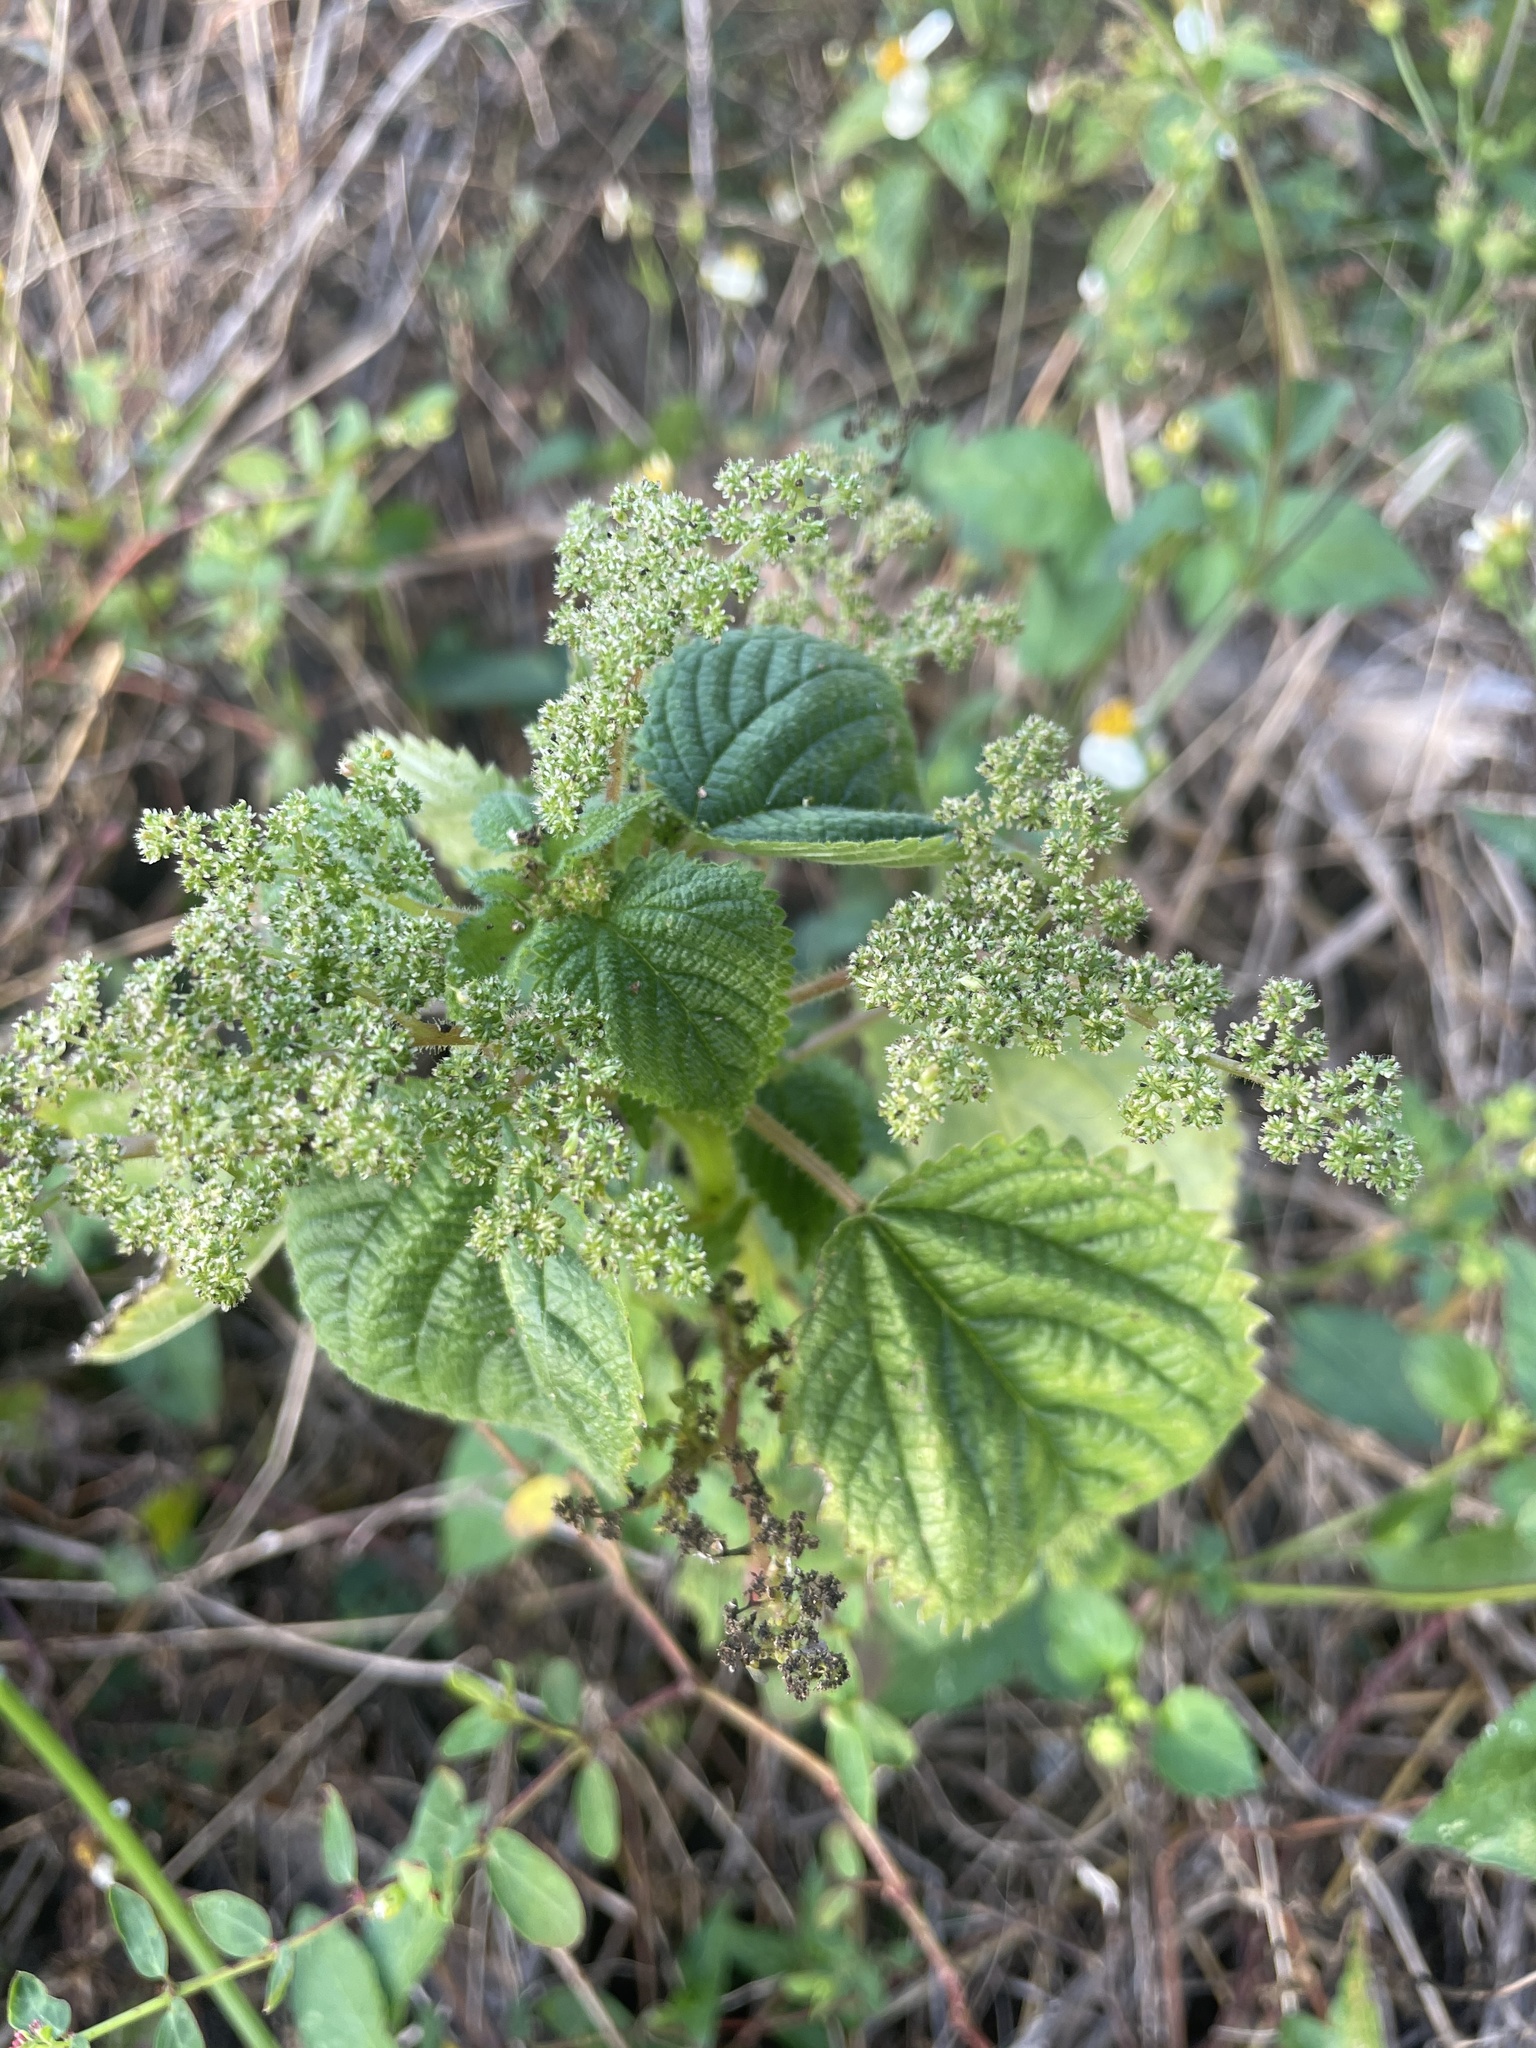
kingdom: Plantae
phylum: Tracheophyta
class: Magnoliopsida
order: Rosales
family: Urticaceae
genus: Laportea
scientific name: Laportea aestuans
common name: West indian woodnettle
